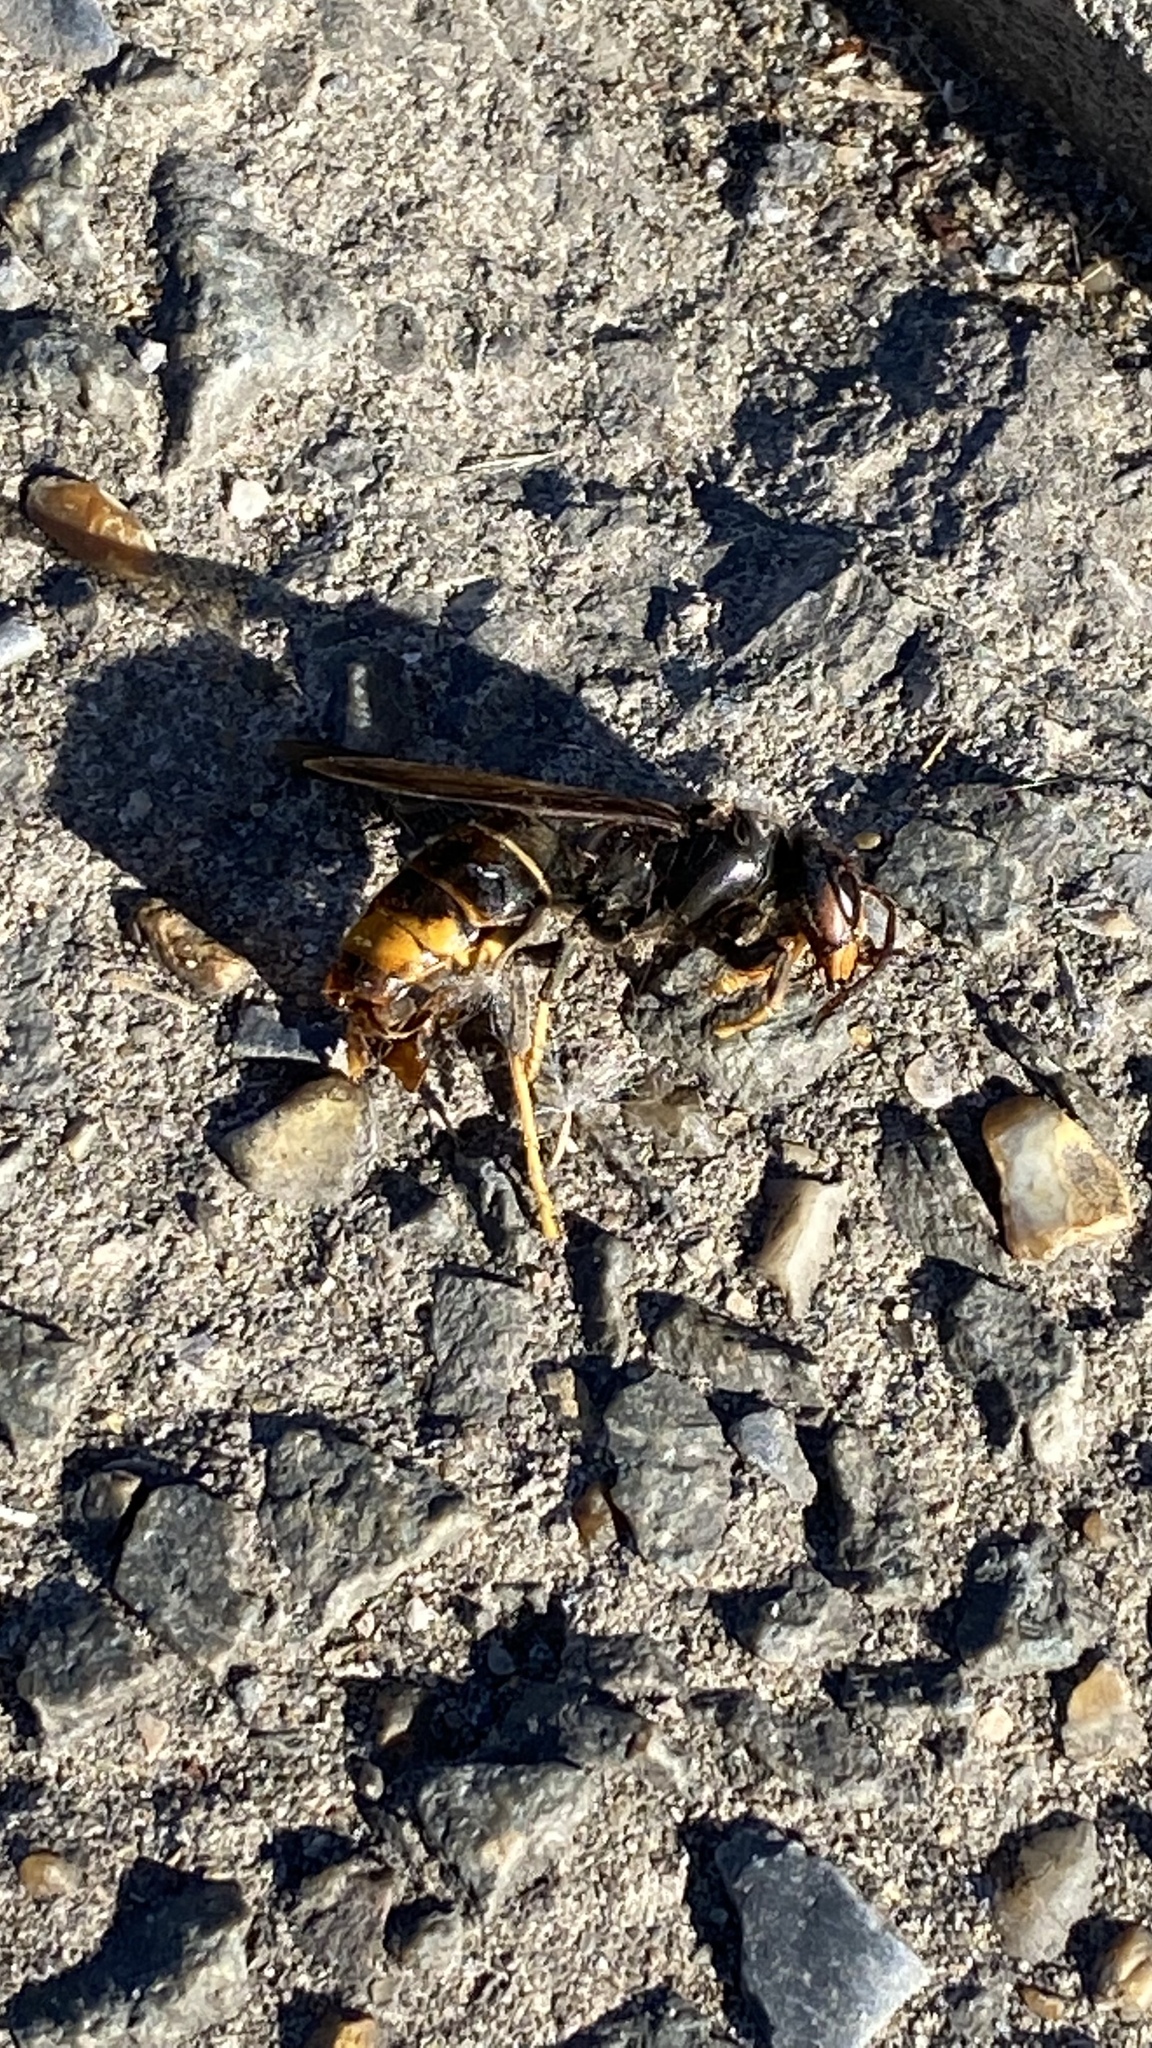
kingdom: Animalia
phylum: Arthropoda
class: Insecta
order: Hymenoptera
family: Vespidae
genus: Vespa
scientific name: Vespa velutina
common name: Asian hornet
